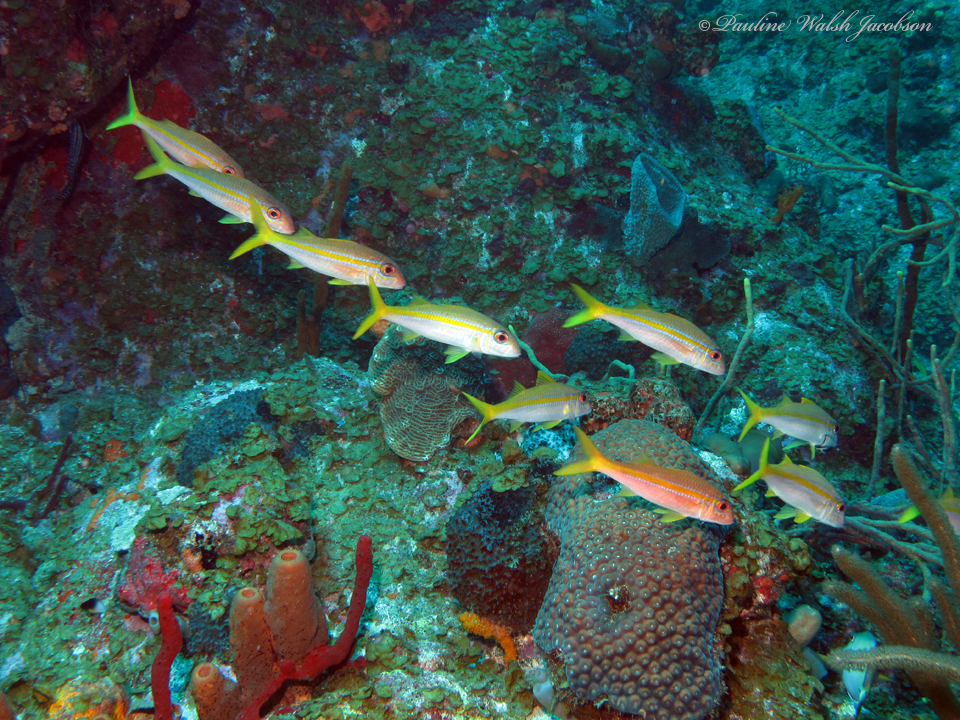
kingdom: Animalia
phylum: Chordata
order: Perciformes
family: Mullidae
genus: Mulloidichthys
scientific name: Mulloidichthys martinicus
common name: Yellow goatfish
